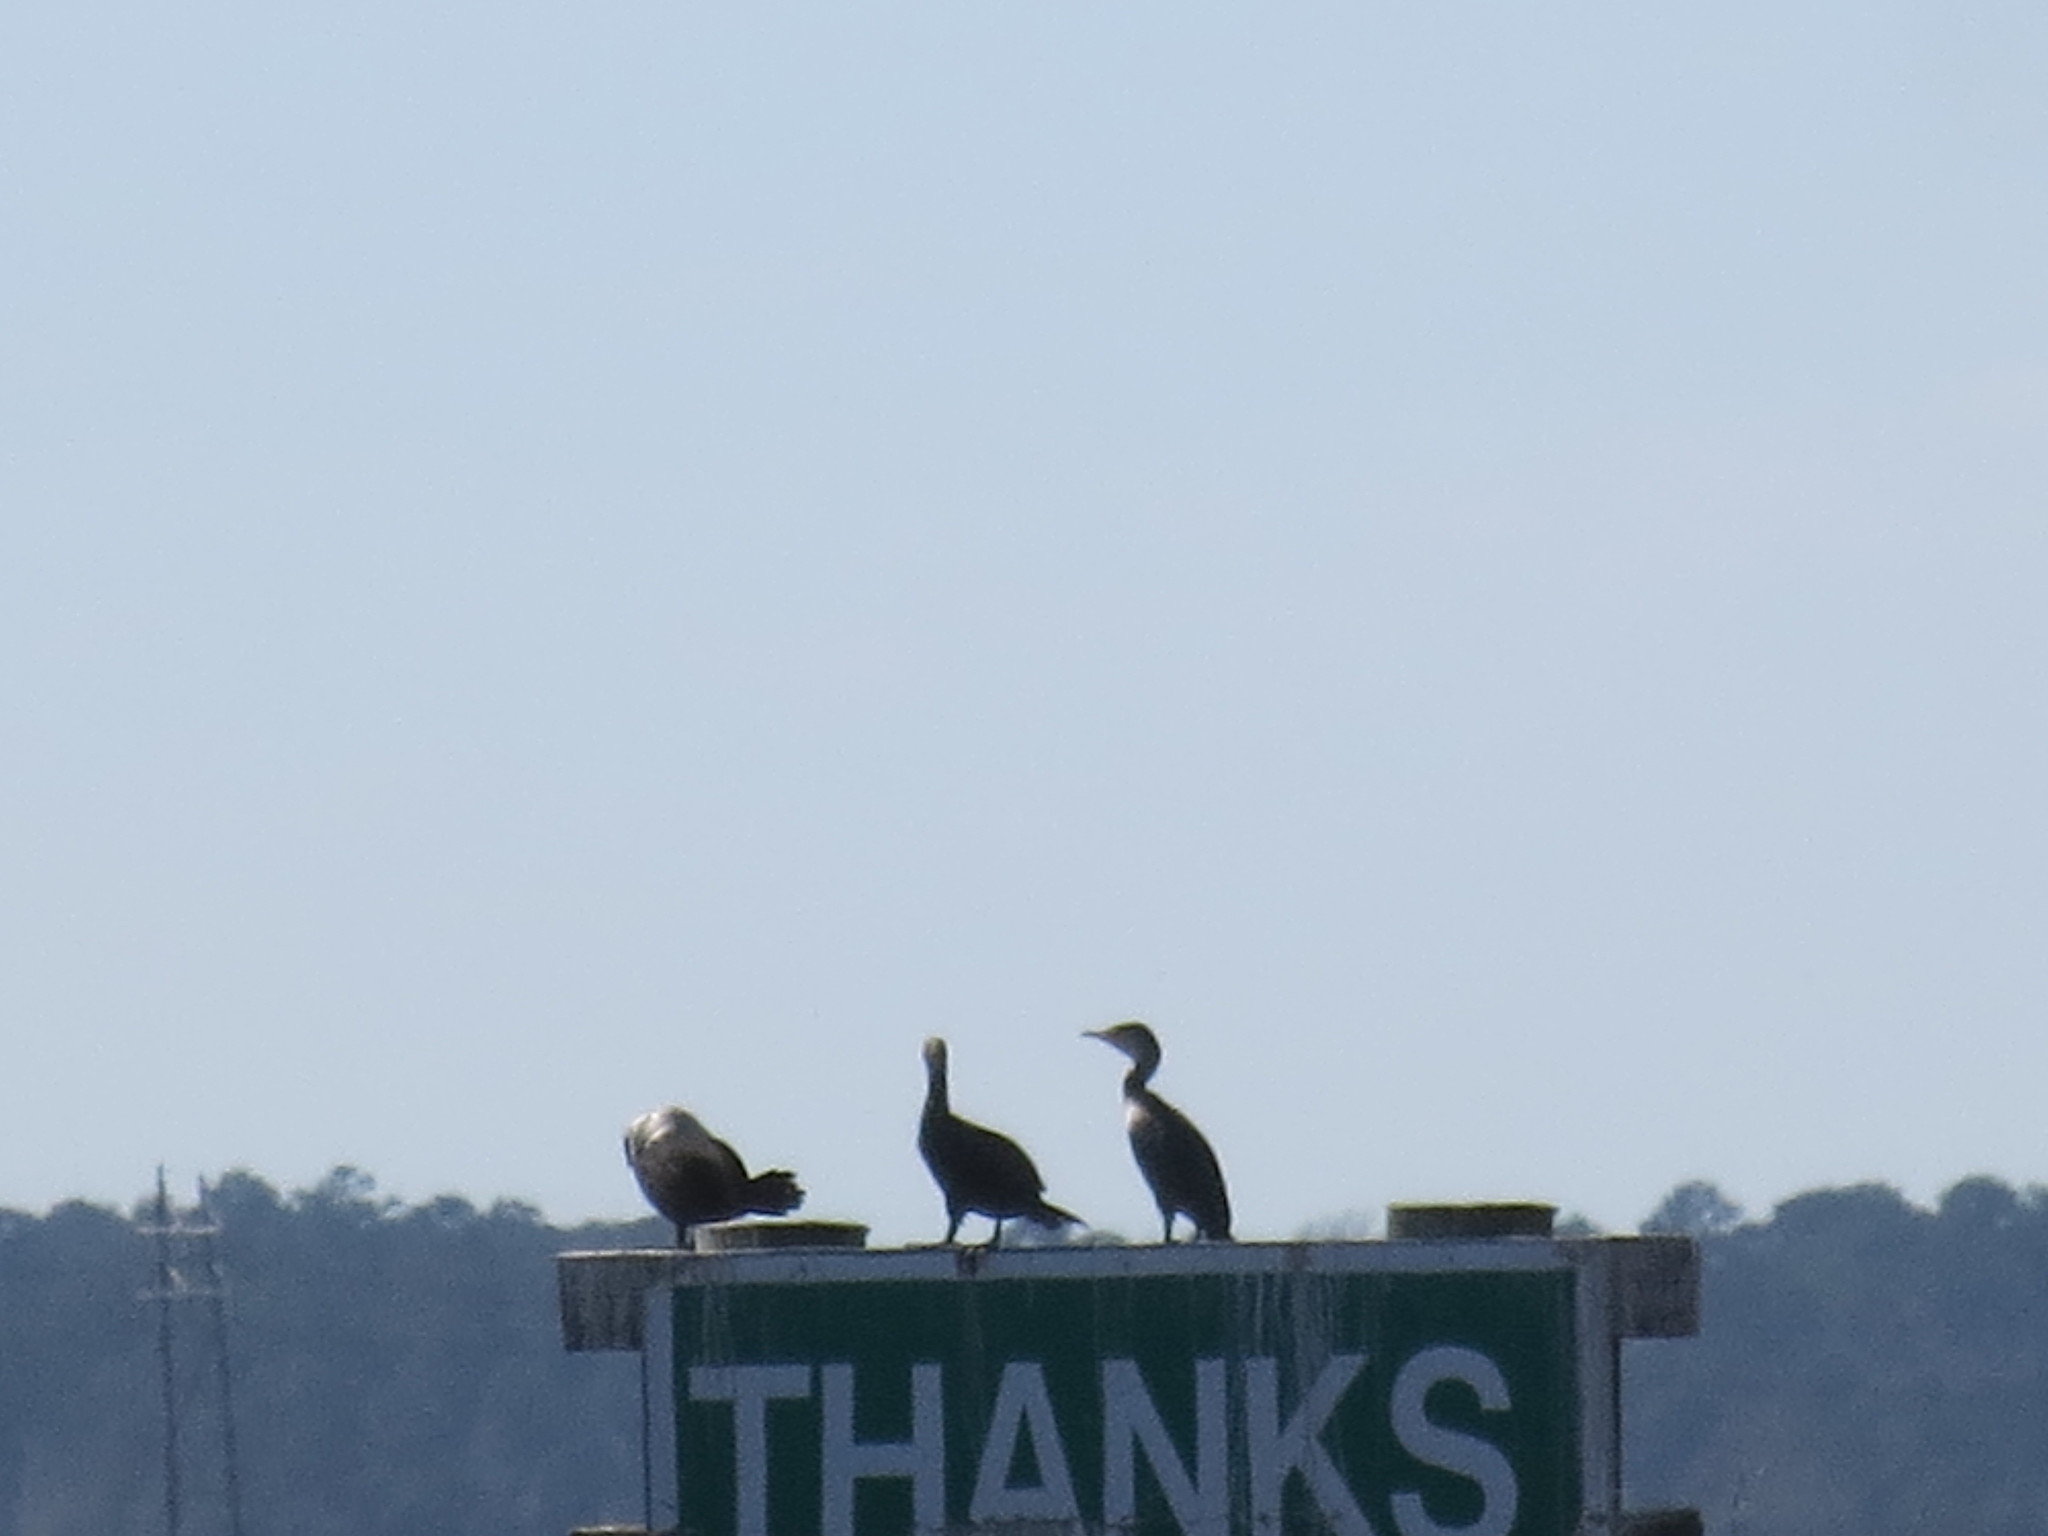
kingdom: Animalia
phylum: Chordata
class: Aves
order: Suliformes
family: Phalacrocoracidae
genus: Phalacrocorax
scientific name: Phalacrocorax auritus
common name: Double-crested cormorant
